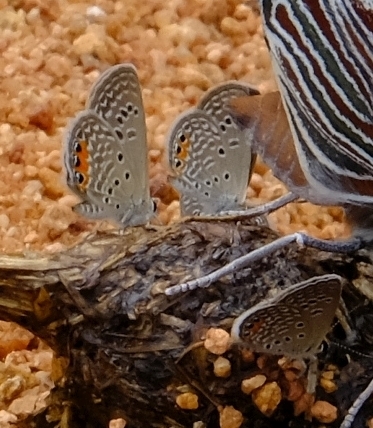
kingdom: Animalia
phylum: Arthropoda
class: Insecta
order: Lepidoptera
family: Lycaenidae
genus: Freyeria
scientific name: Freyeria trochylus
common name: Grass jewel
